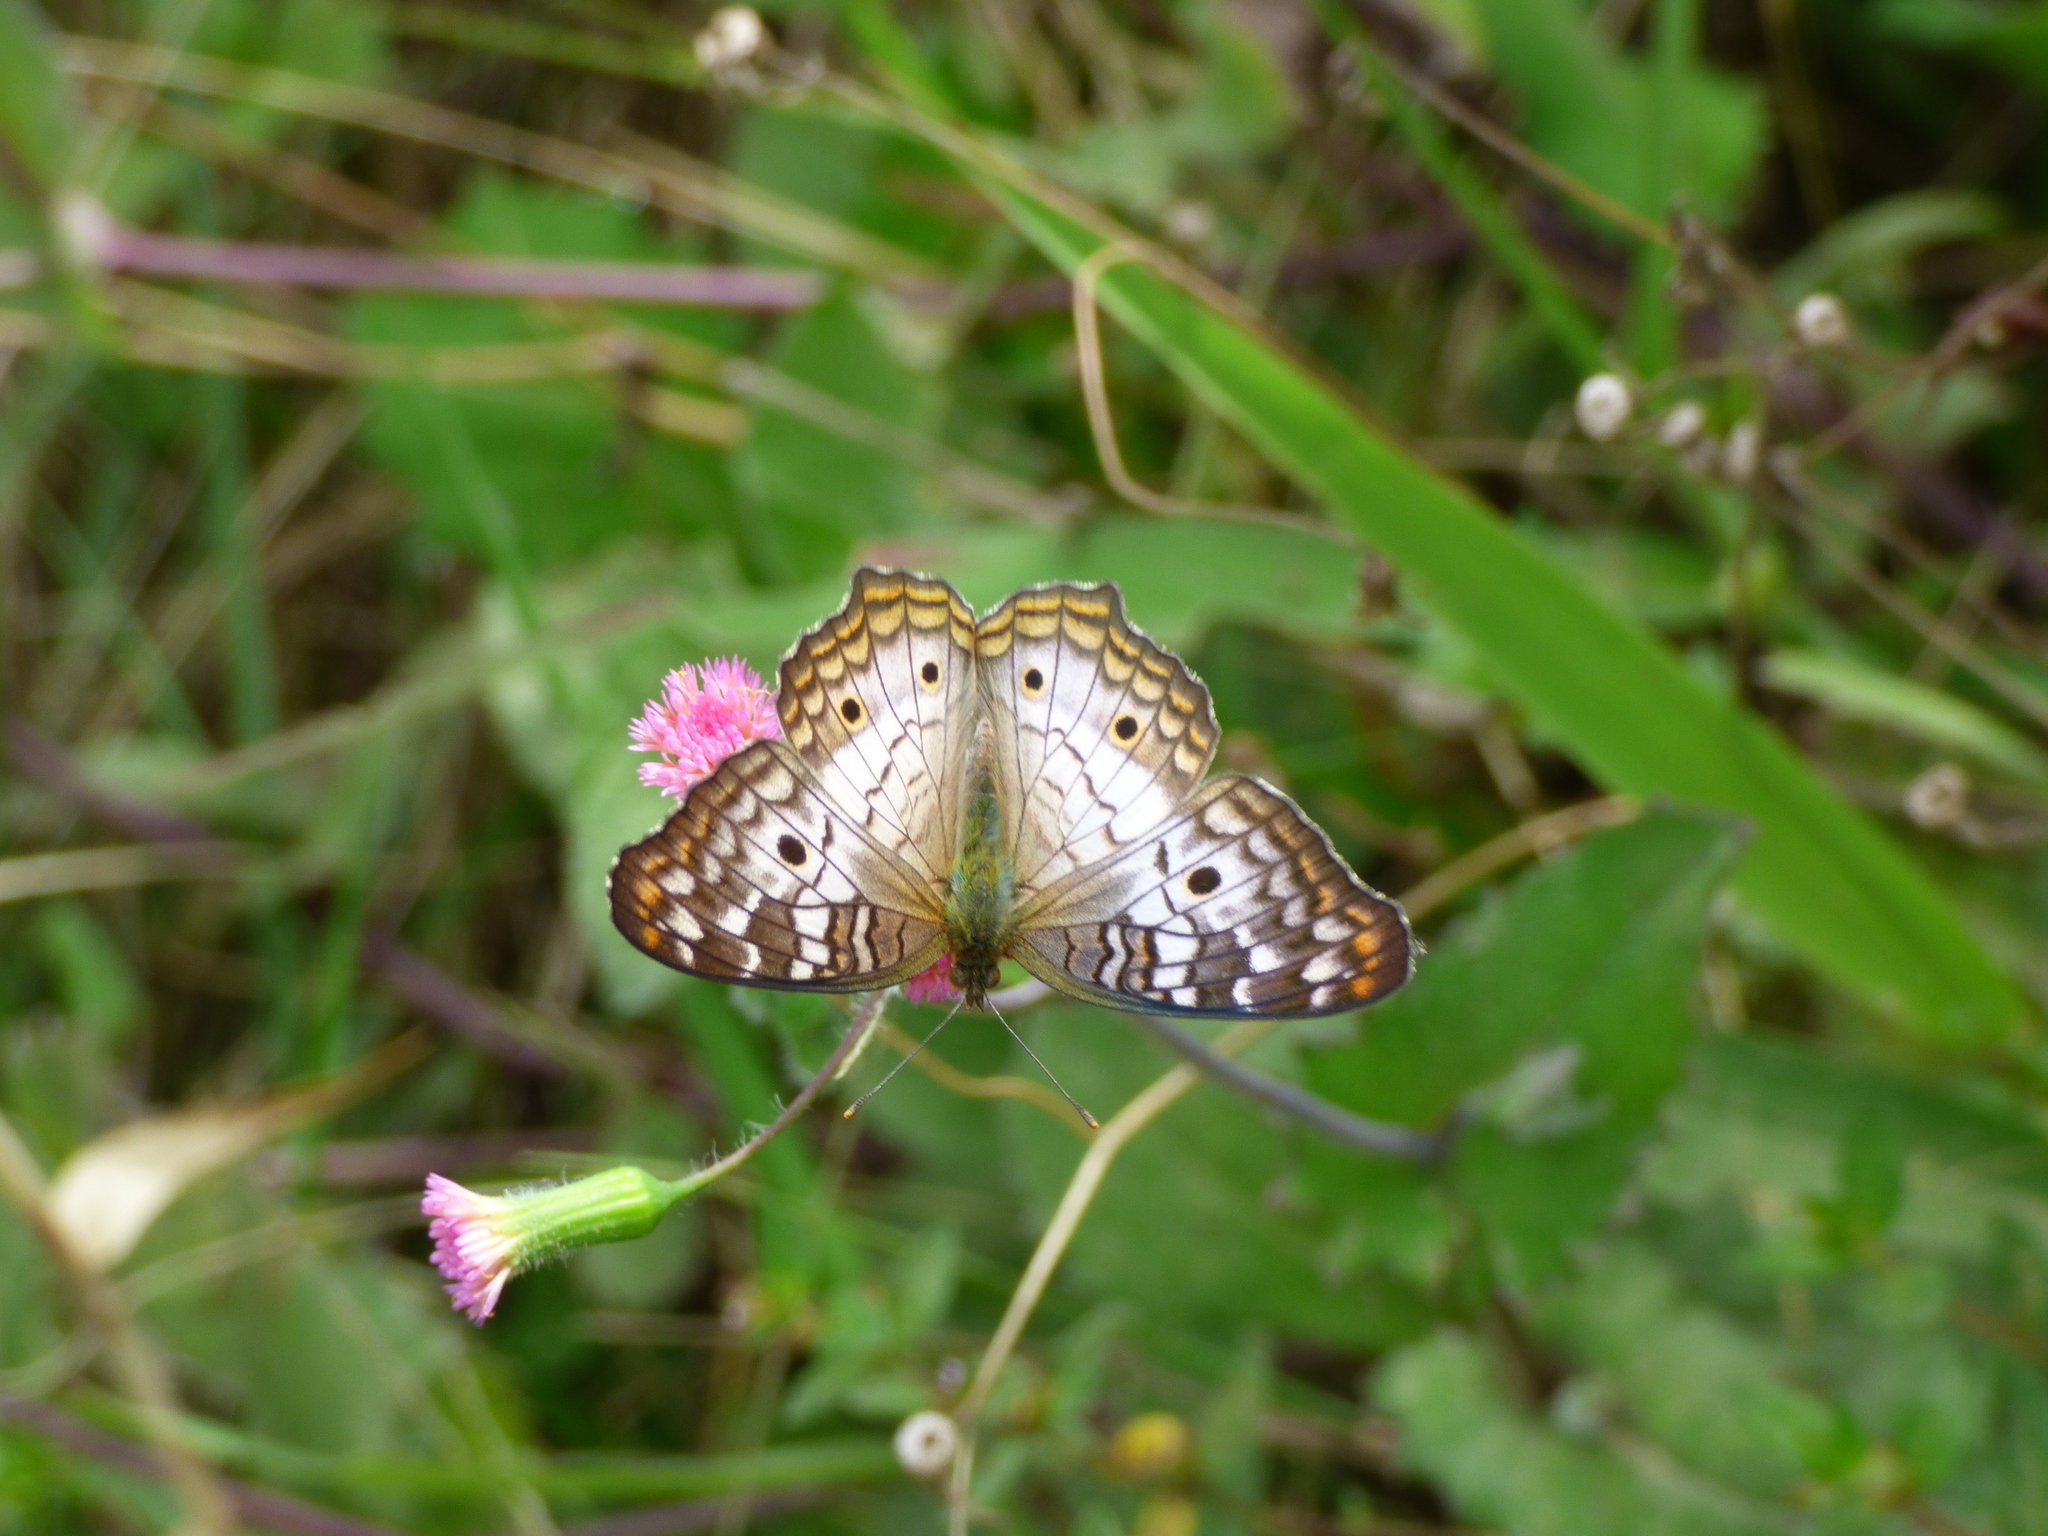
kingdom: Animalia
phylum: Arthropoda
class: Insecta
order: Lepidoptera
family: Nymphalidae
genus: Anartia
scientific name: Anartia jatrophae
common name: White peacock
